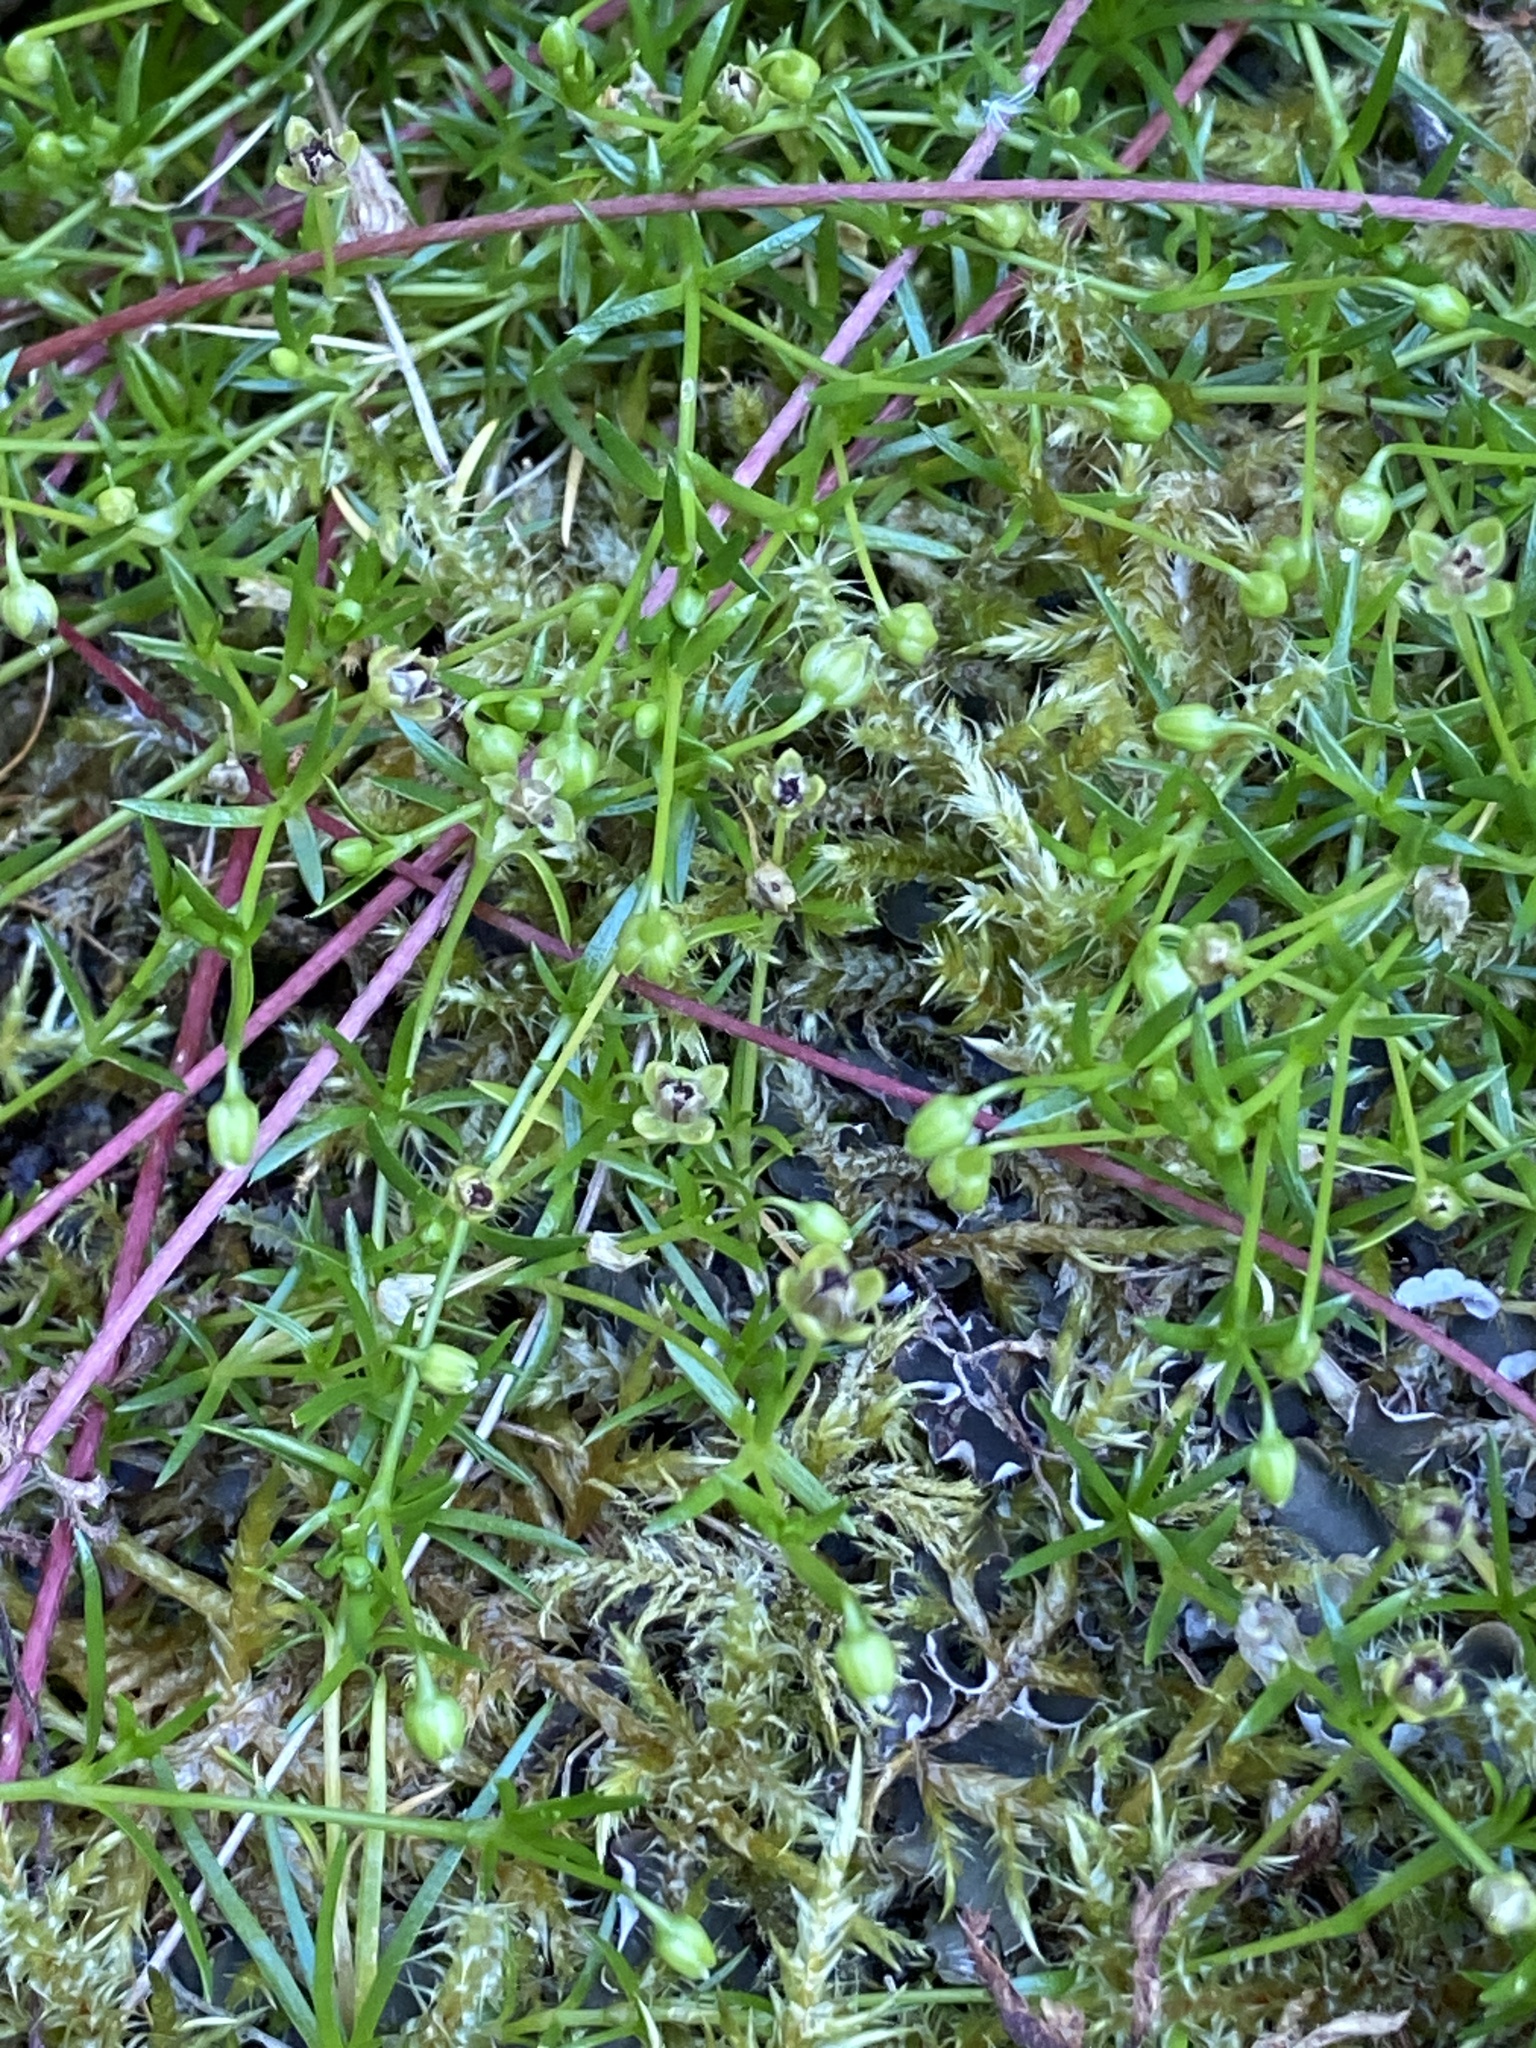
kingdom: Plantae
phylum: Tracheophyta
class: Magnoliopsida
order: Caryophyllales
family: Caryophyllaceae
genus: Sagina
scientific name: Sagina procumbens
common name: Procumbent pearlwort
